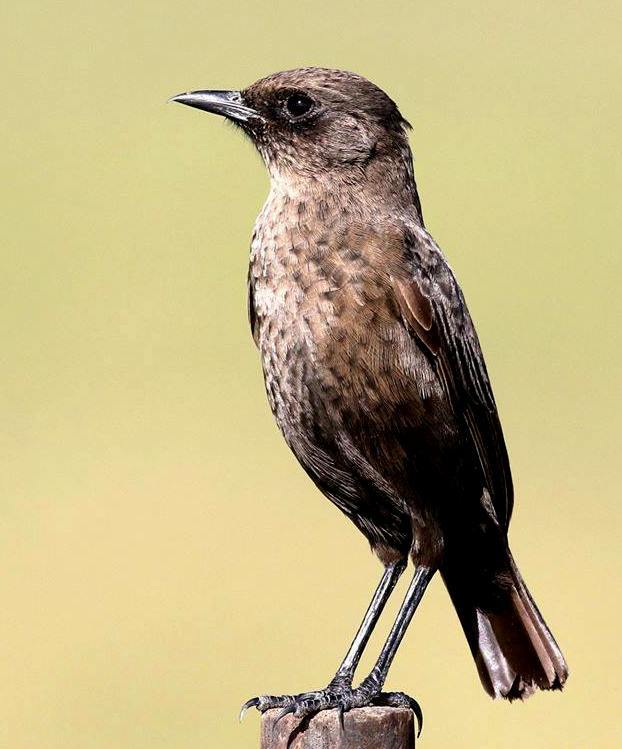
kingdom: Animalia
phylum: Chordata
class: Aves
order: Passeriformes
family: Muscicapidae
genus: Myrmecocichla
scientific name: Myrmecocichla formicivora
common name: Ant-eating chat
